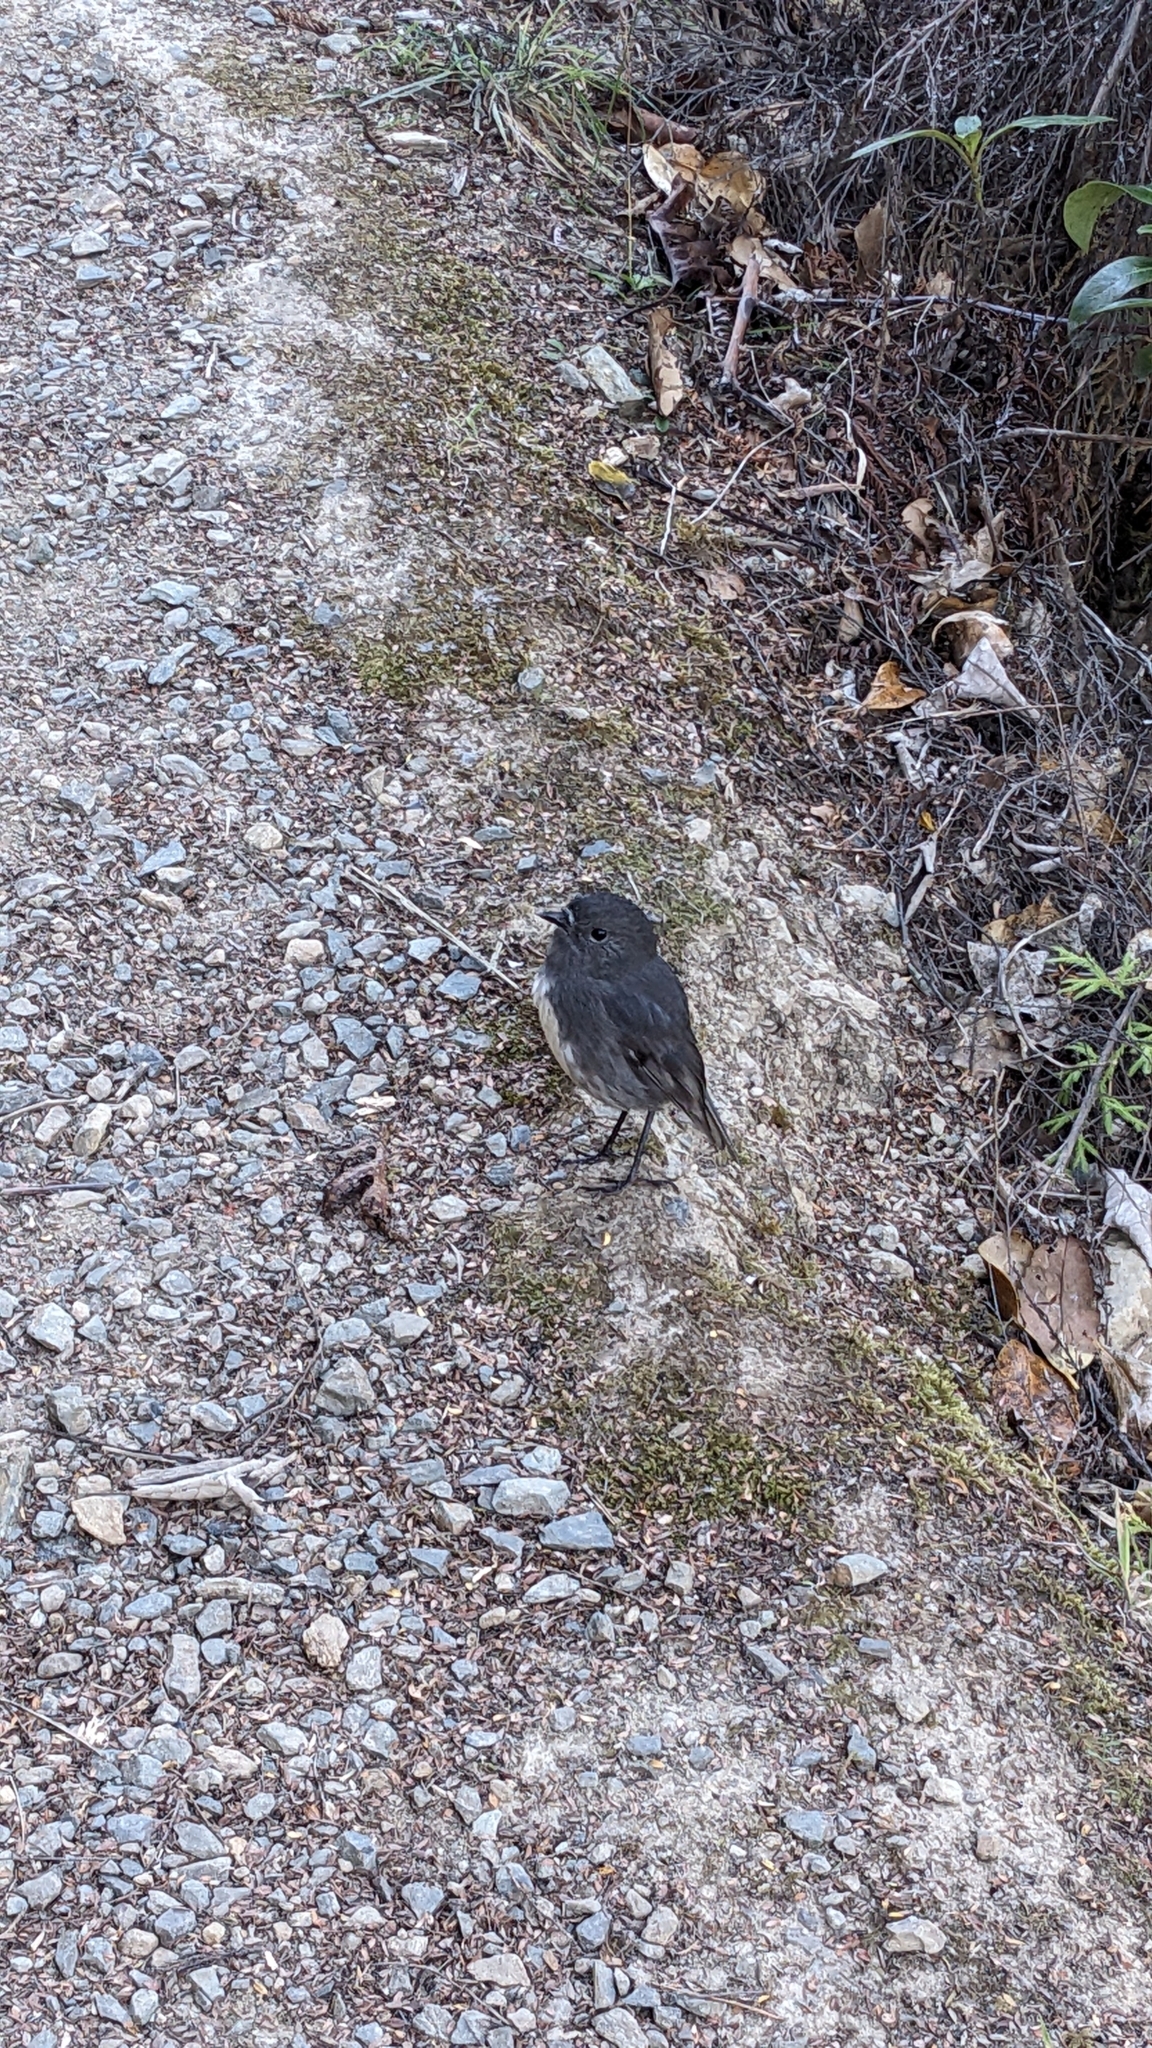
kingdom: Animalia
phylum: Chordata
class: Aves
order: Passeriformes
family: Petroicidae
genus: Petroica
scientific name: Petroica australis
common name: New zealand robin
